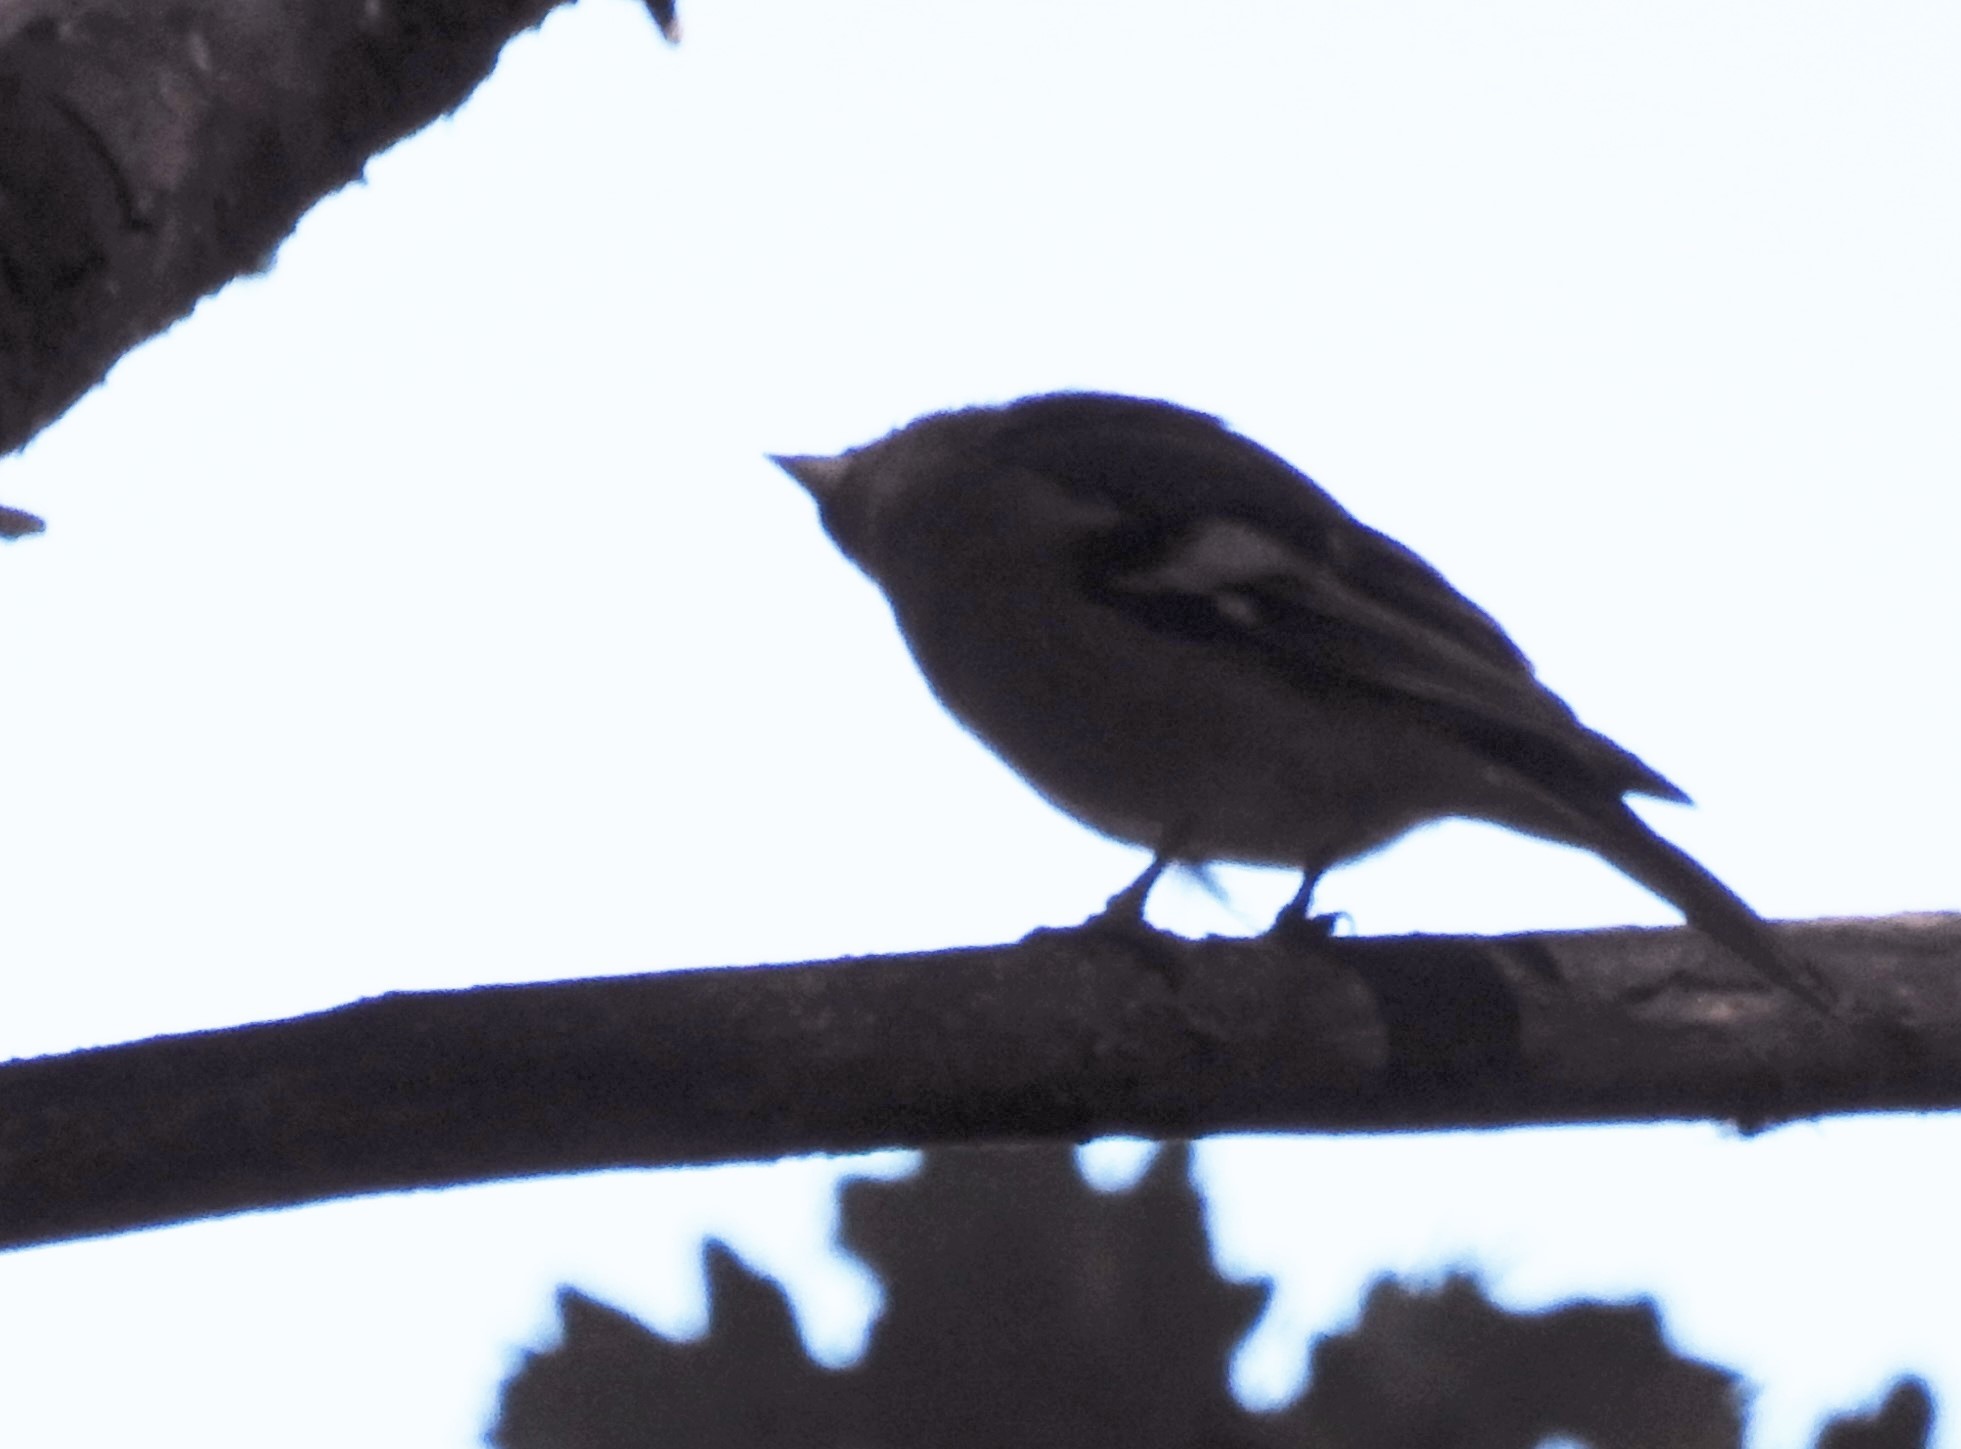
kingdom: Animalia
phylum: Chordata
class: Aves
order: Passeriformes
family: Fringillidae
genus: Fringilla
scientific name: Fringilla coelebs
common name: Common chaffinch
